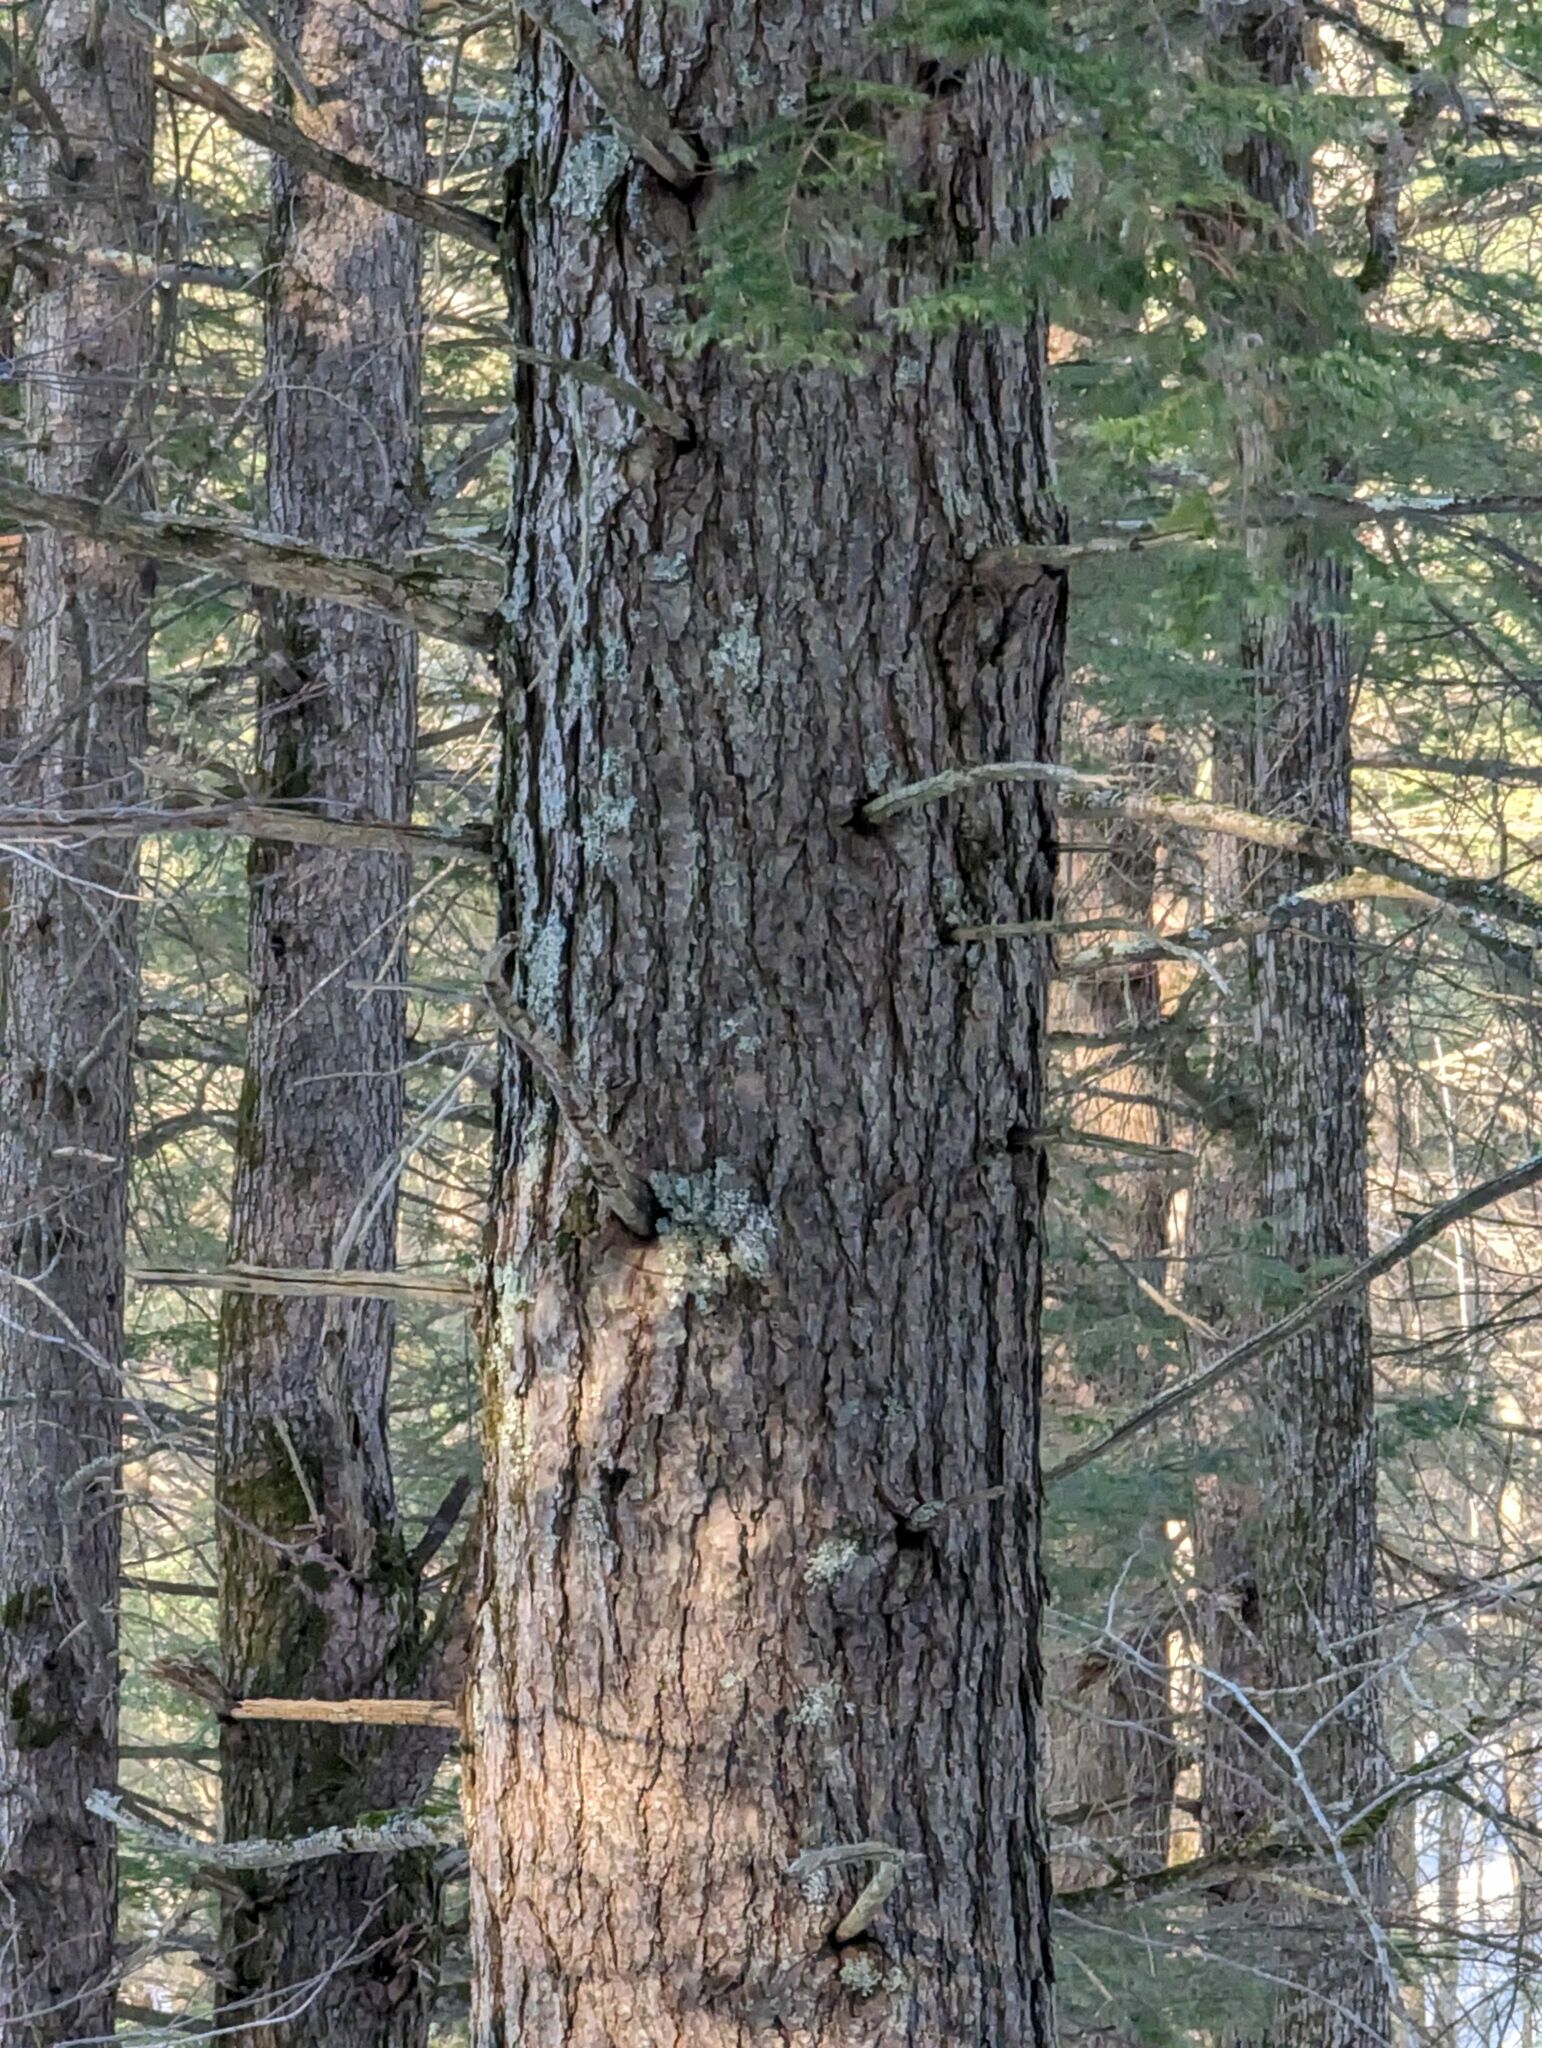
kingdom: Plantae
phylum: Tracheophyta
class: Pinopsida
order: Pinales
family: Pinaceae
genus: Tsuga
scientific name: Tsuga canadensis
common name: Eastern hemlock
